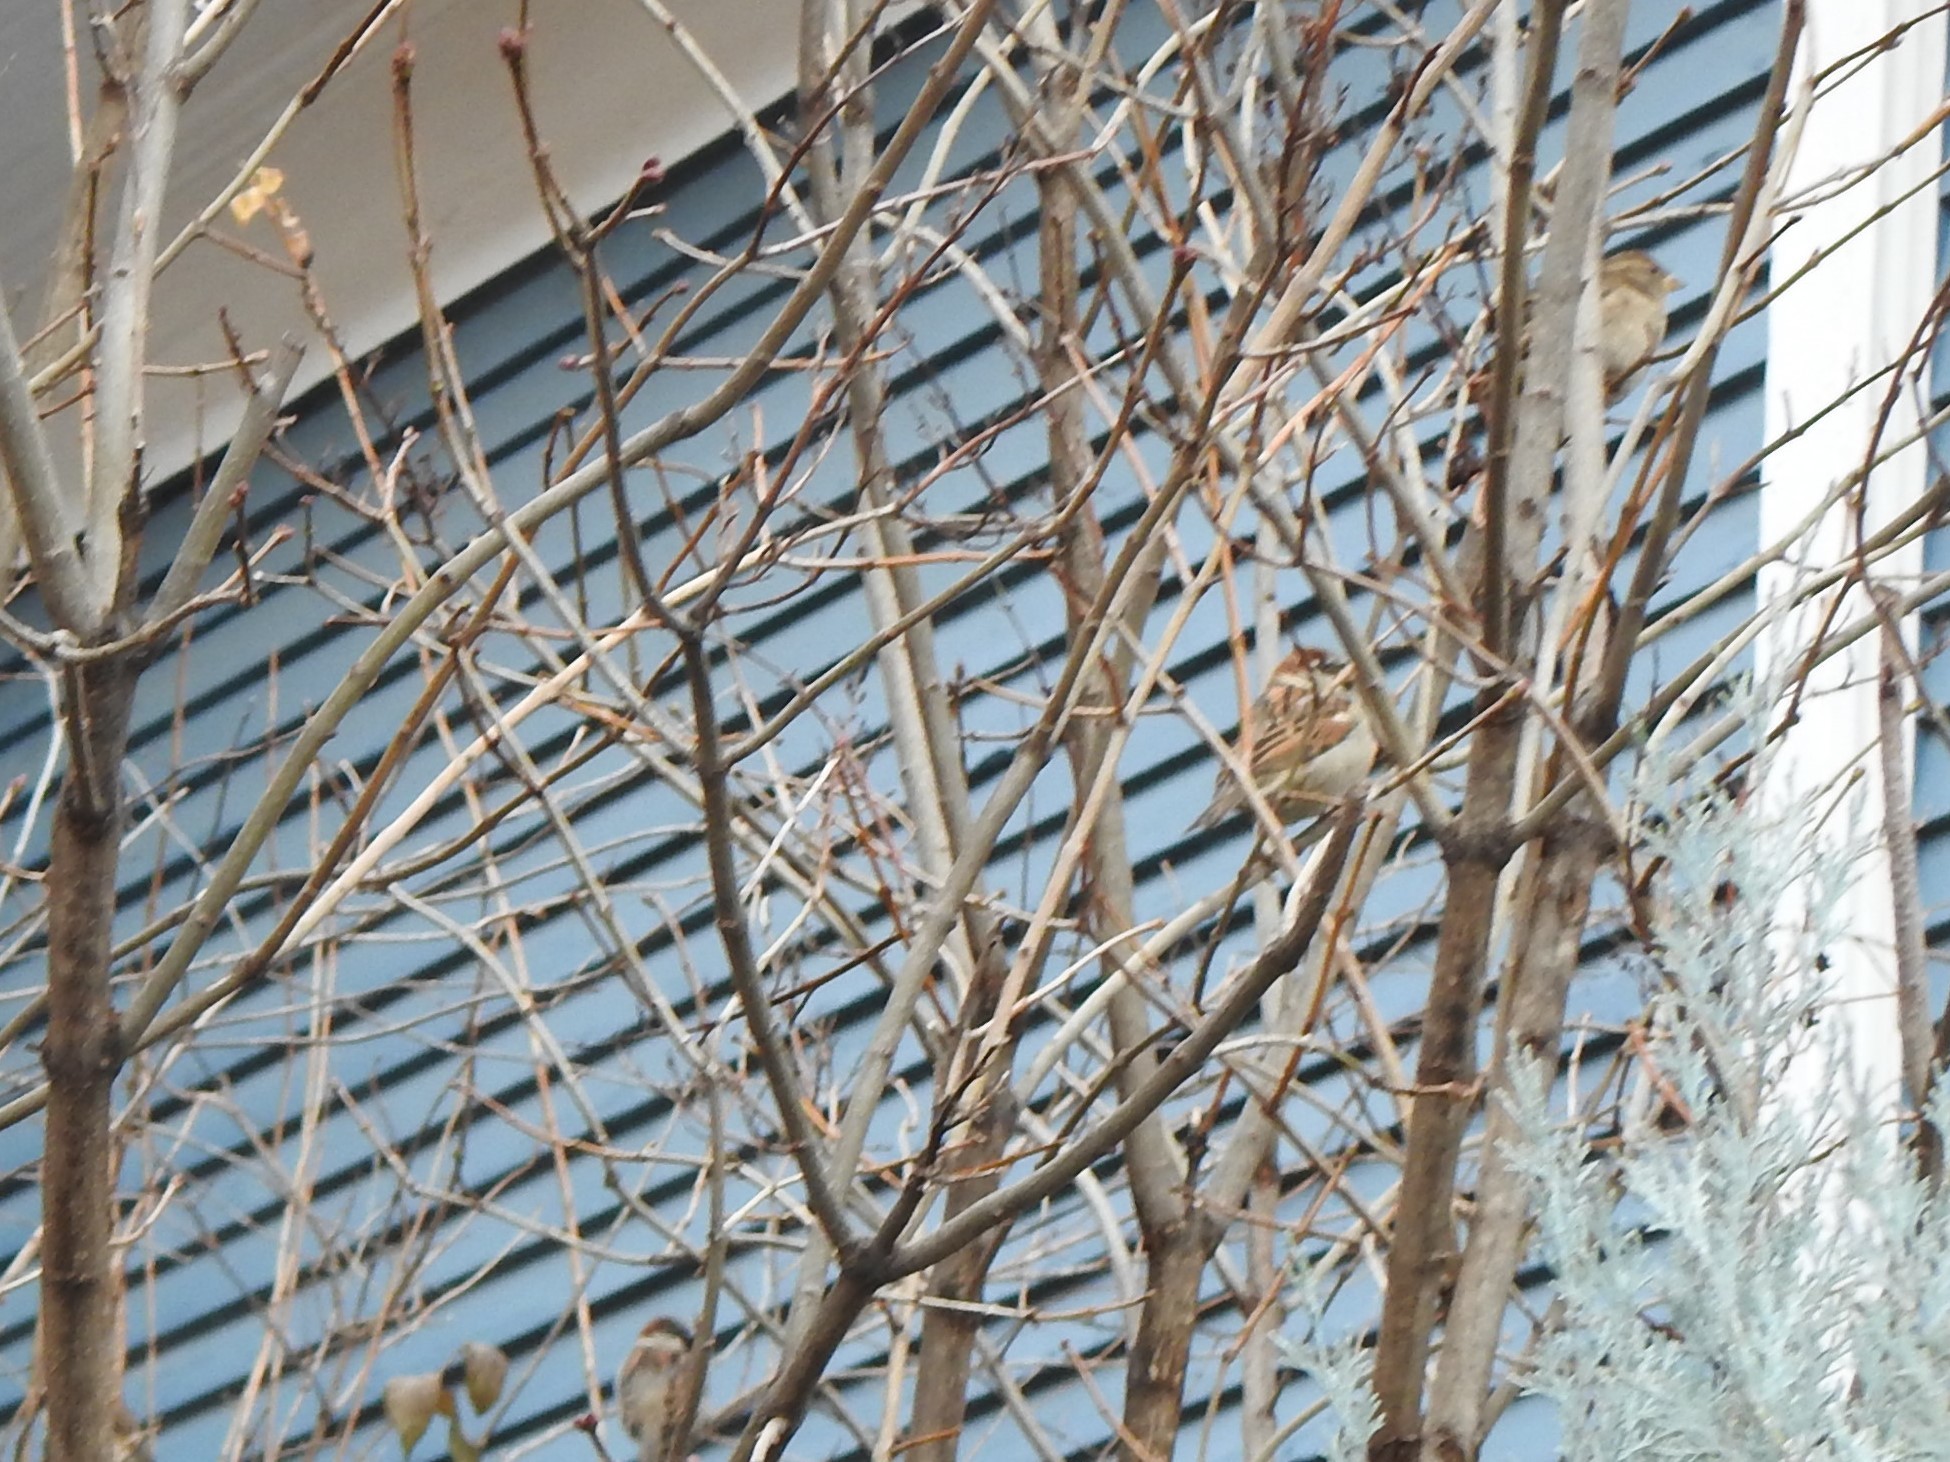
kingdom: Animalia
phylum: Chordata
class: Aves
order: Passeriformes
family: Passeridae
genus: Passer
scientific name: Passer domesticus
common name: House sparrow
